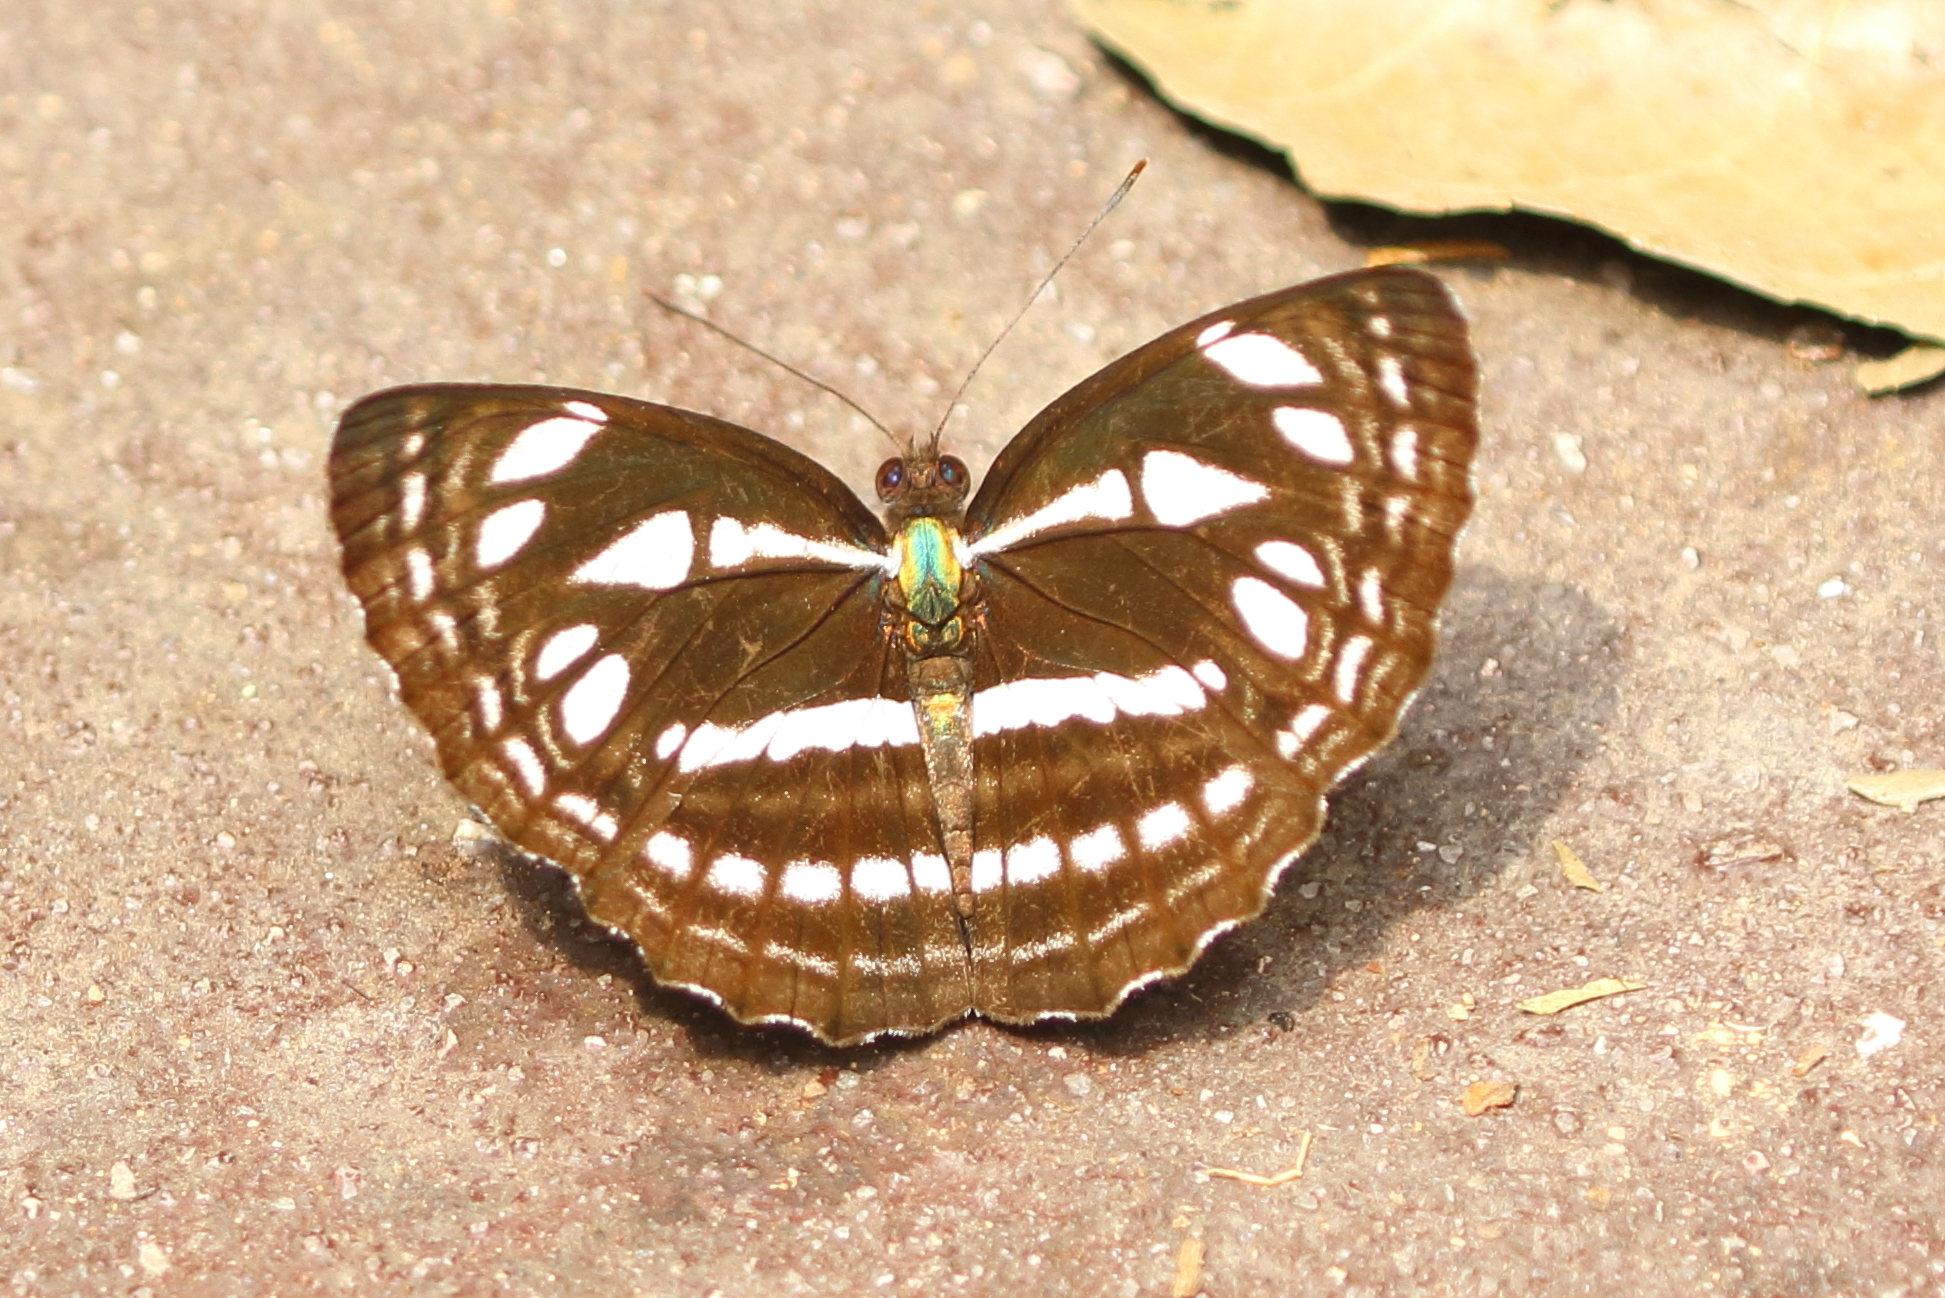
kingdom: Animalia
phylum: Arthropoda
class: Insecta
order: Lepidoptera
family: Nymphalidae
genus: Phaedyma
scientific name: Phaedyma columella
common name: Short banded sailer
